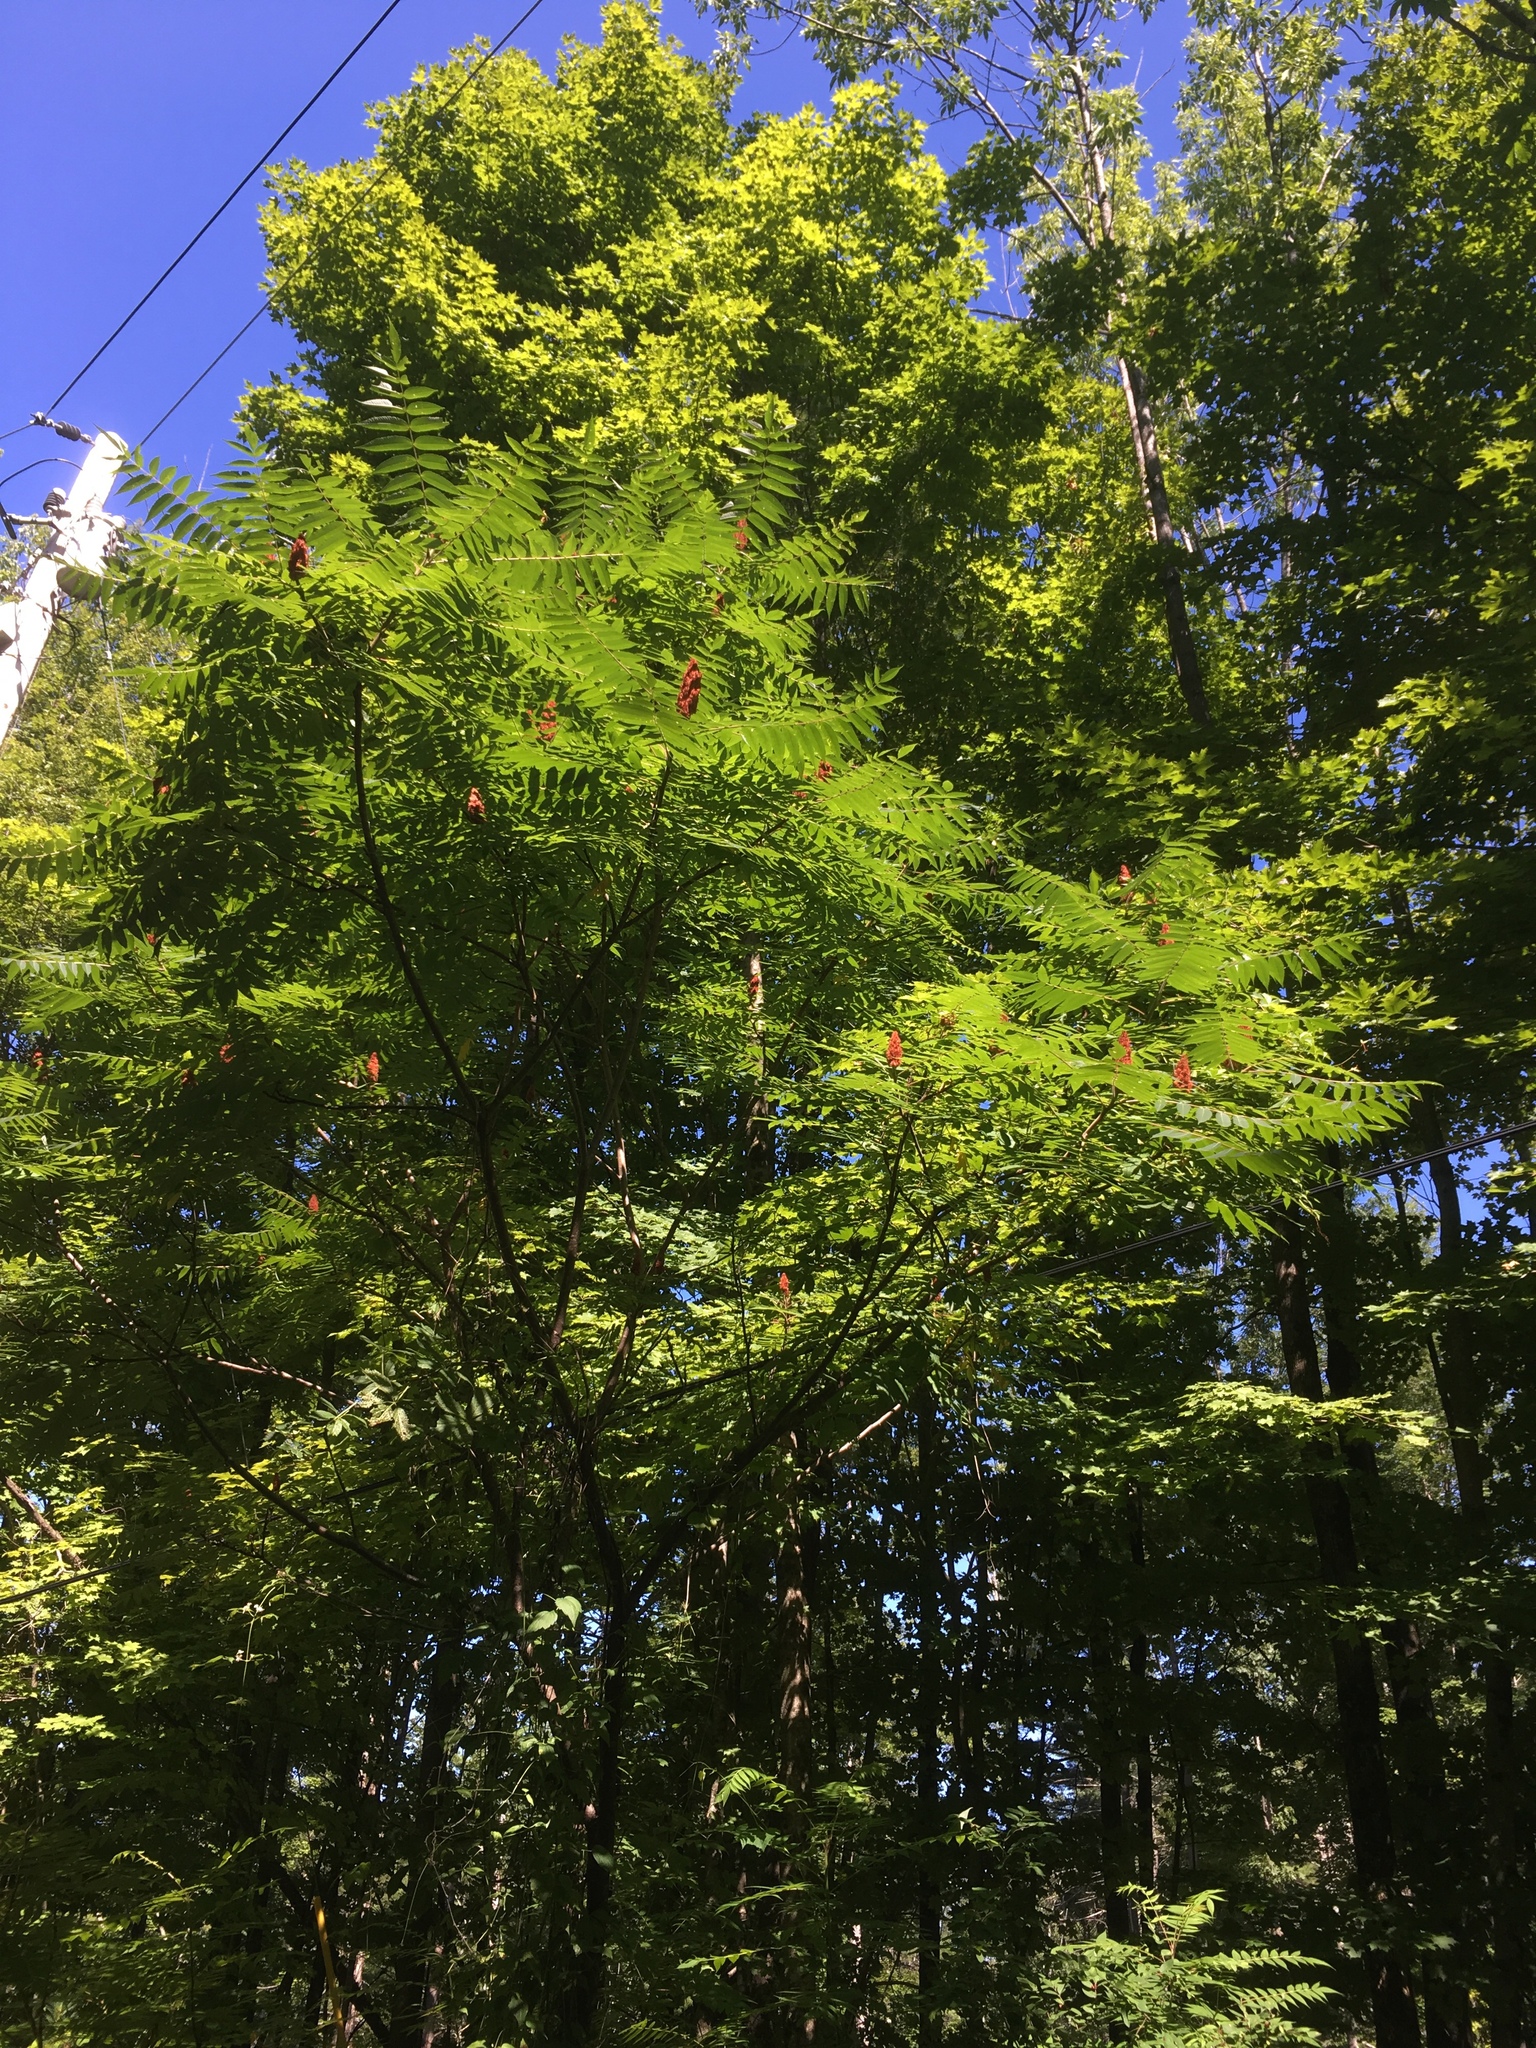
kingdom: Plantae
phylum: Tracheophyta
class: Magnoliopsida
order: Sapindales
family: Anacardiaceae
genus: Rhus
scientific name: Rhus typhina
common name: Staghorn sumac
